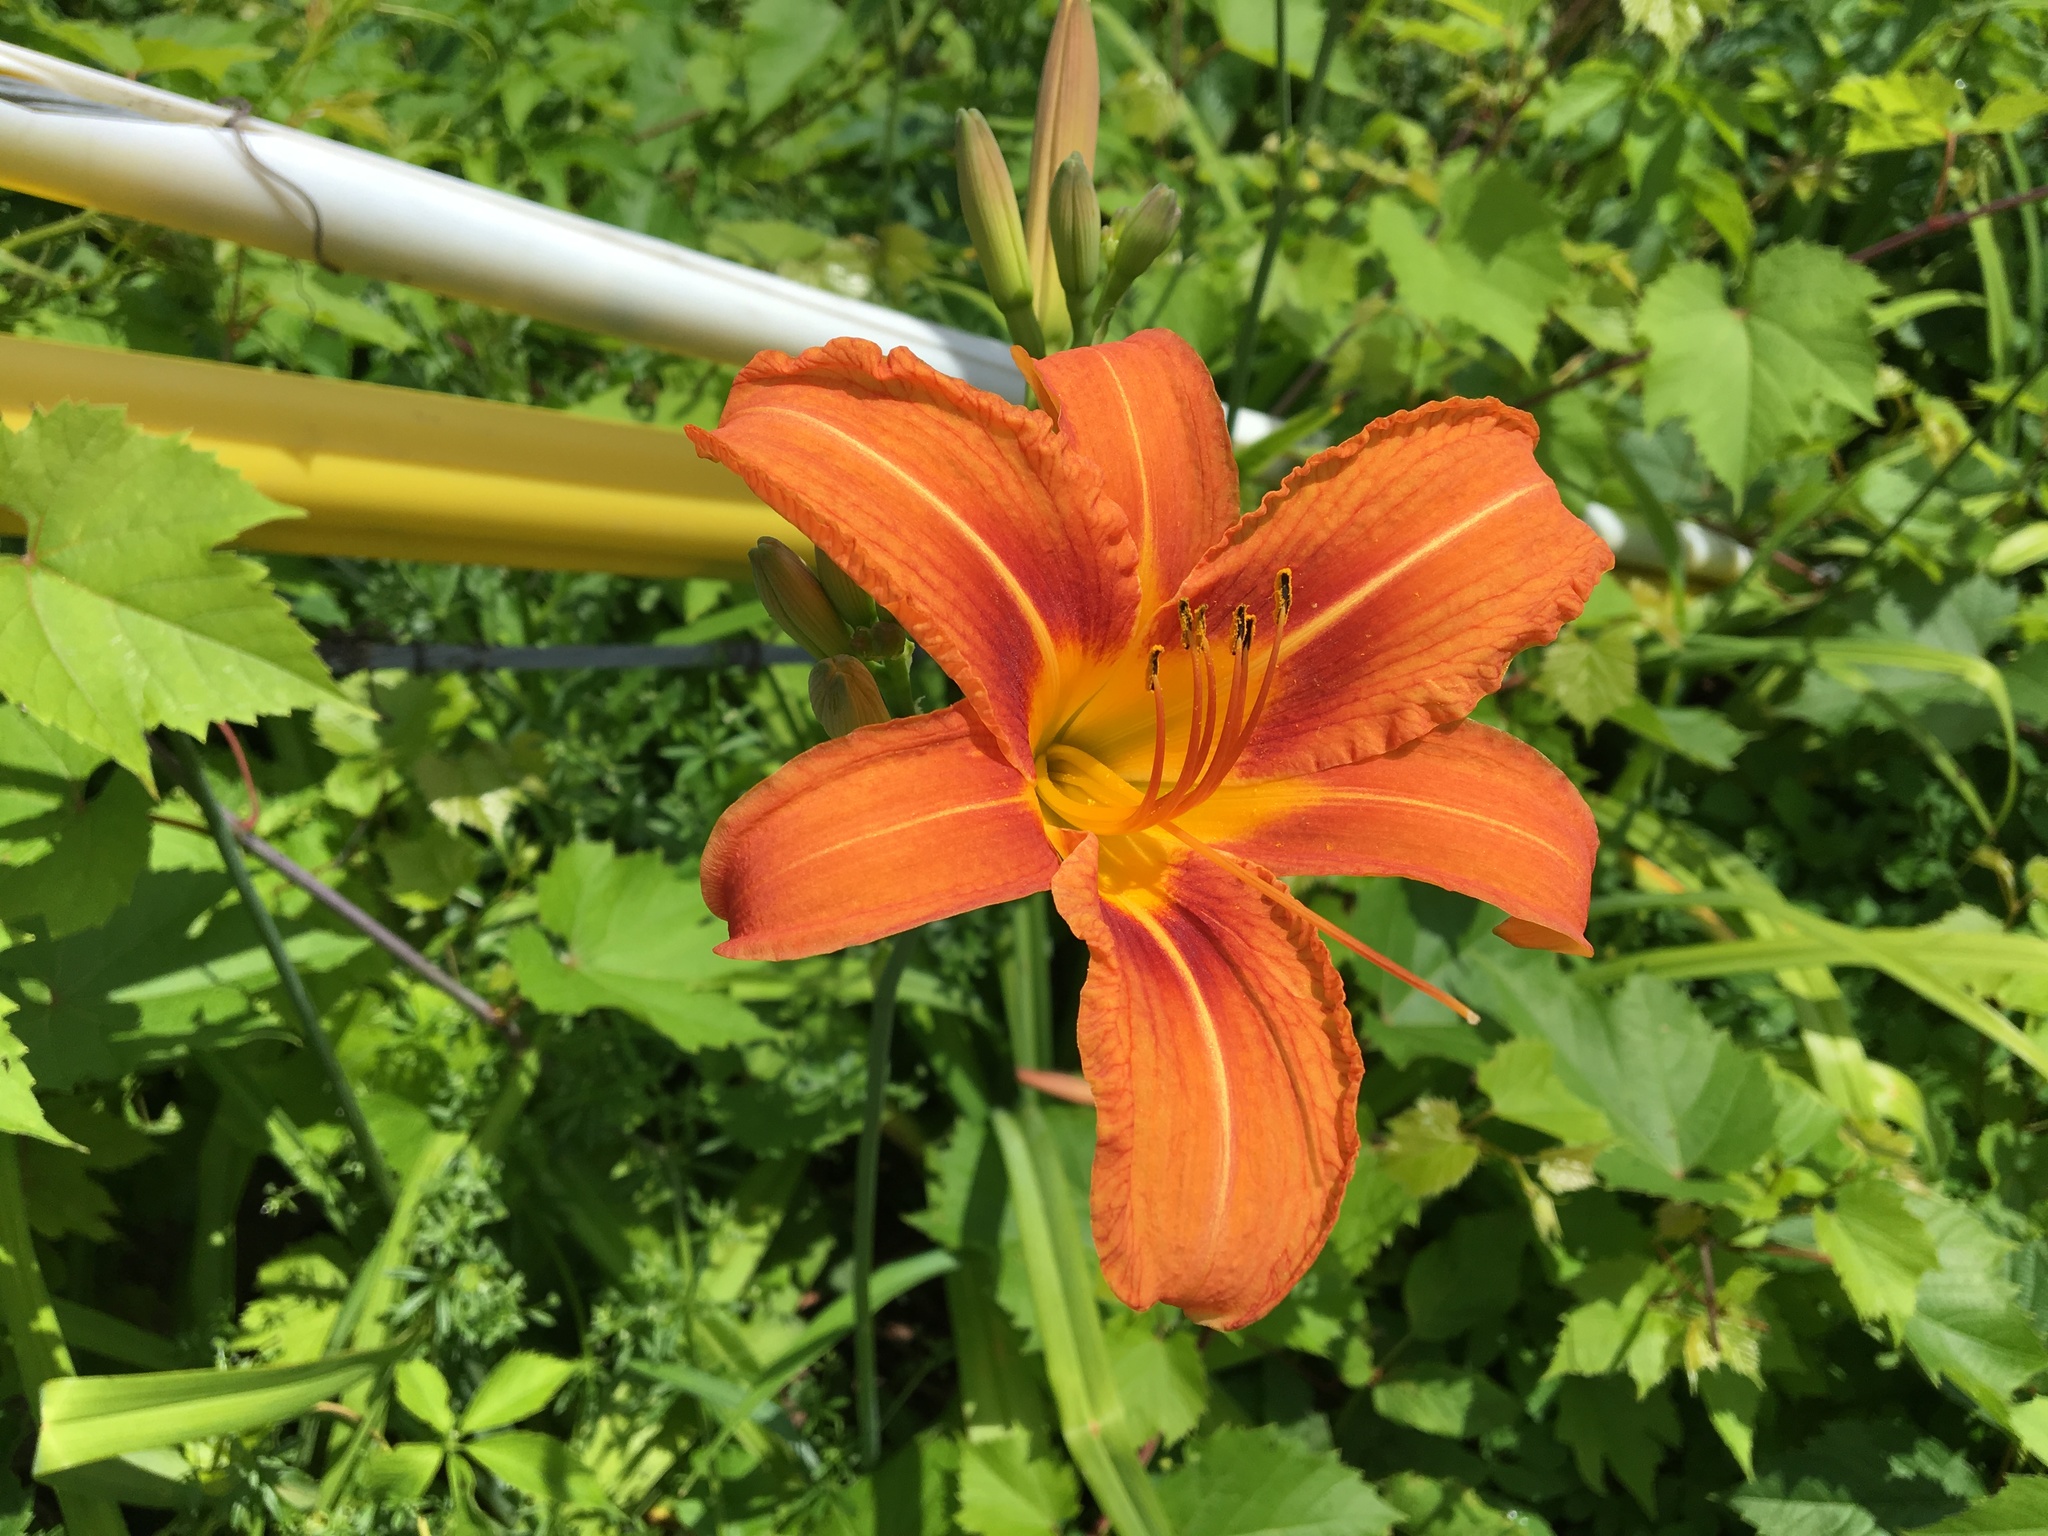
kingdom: Plantae
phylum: Tracheophyta
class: Liliopsida
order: Asparagales
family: Asphodelaceae
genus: Hemerocallis
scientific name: Hemerocallis fulva
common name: Orange day-lily
